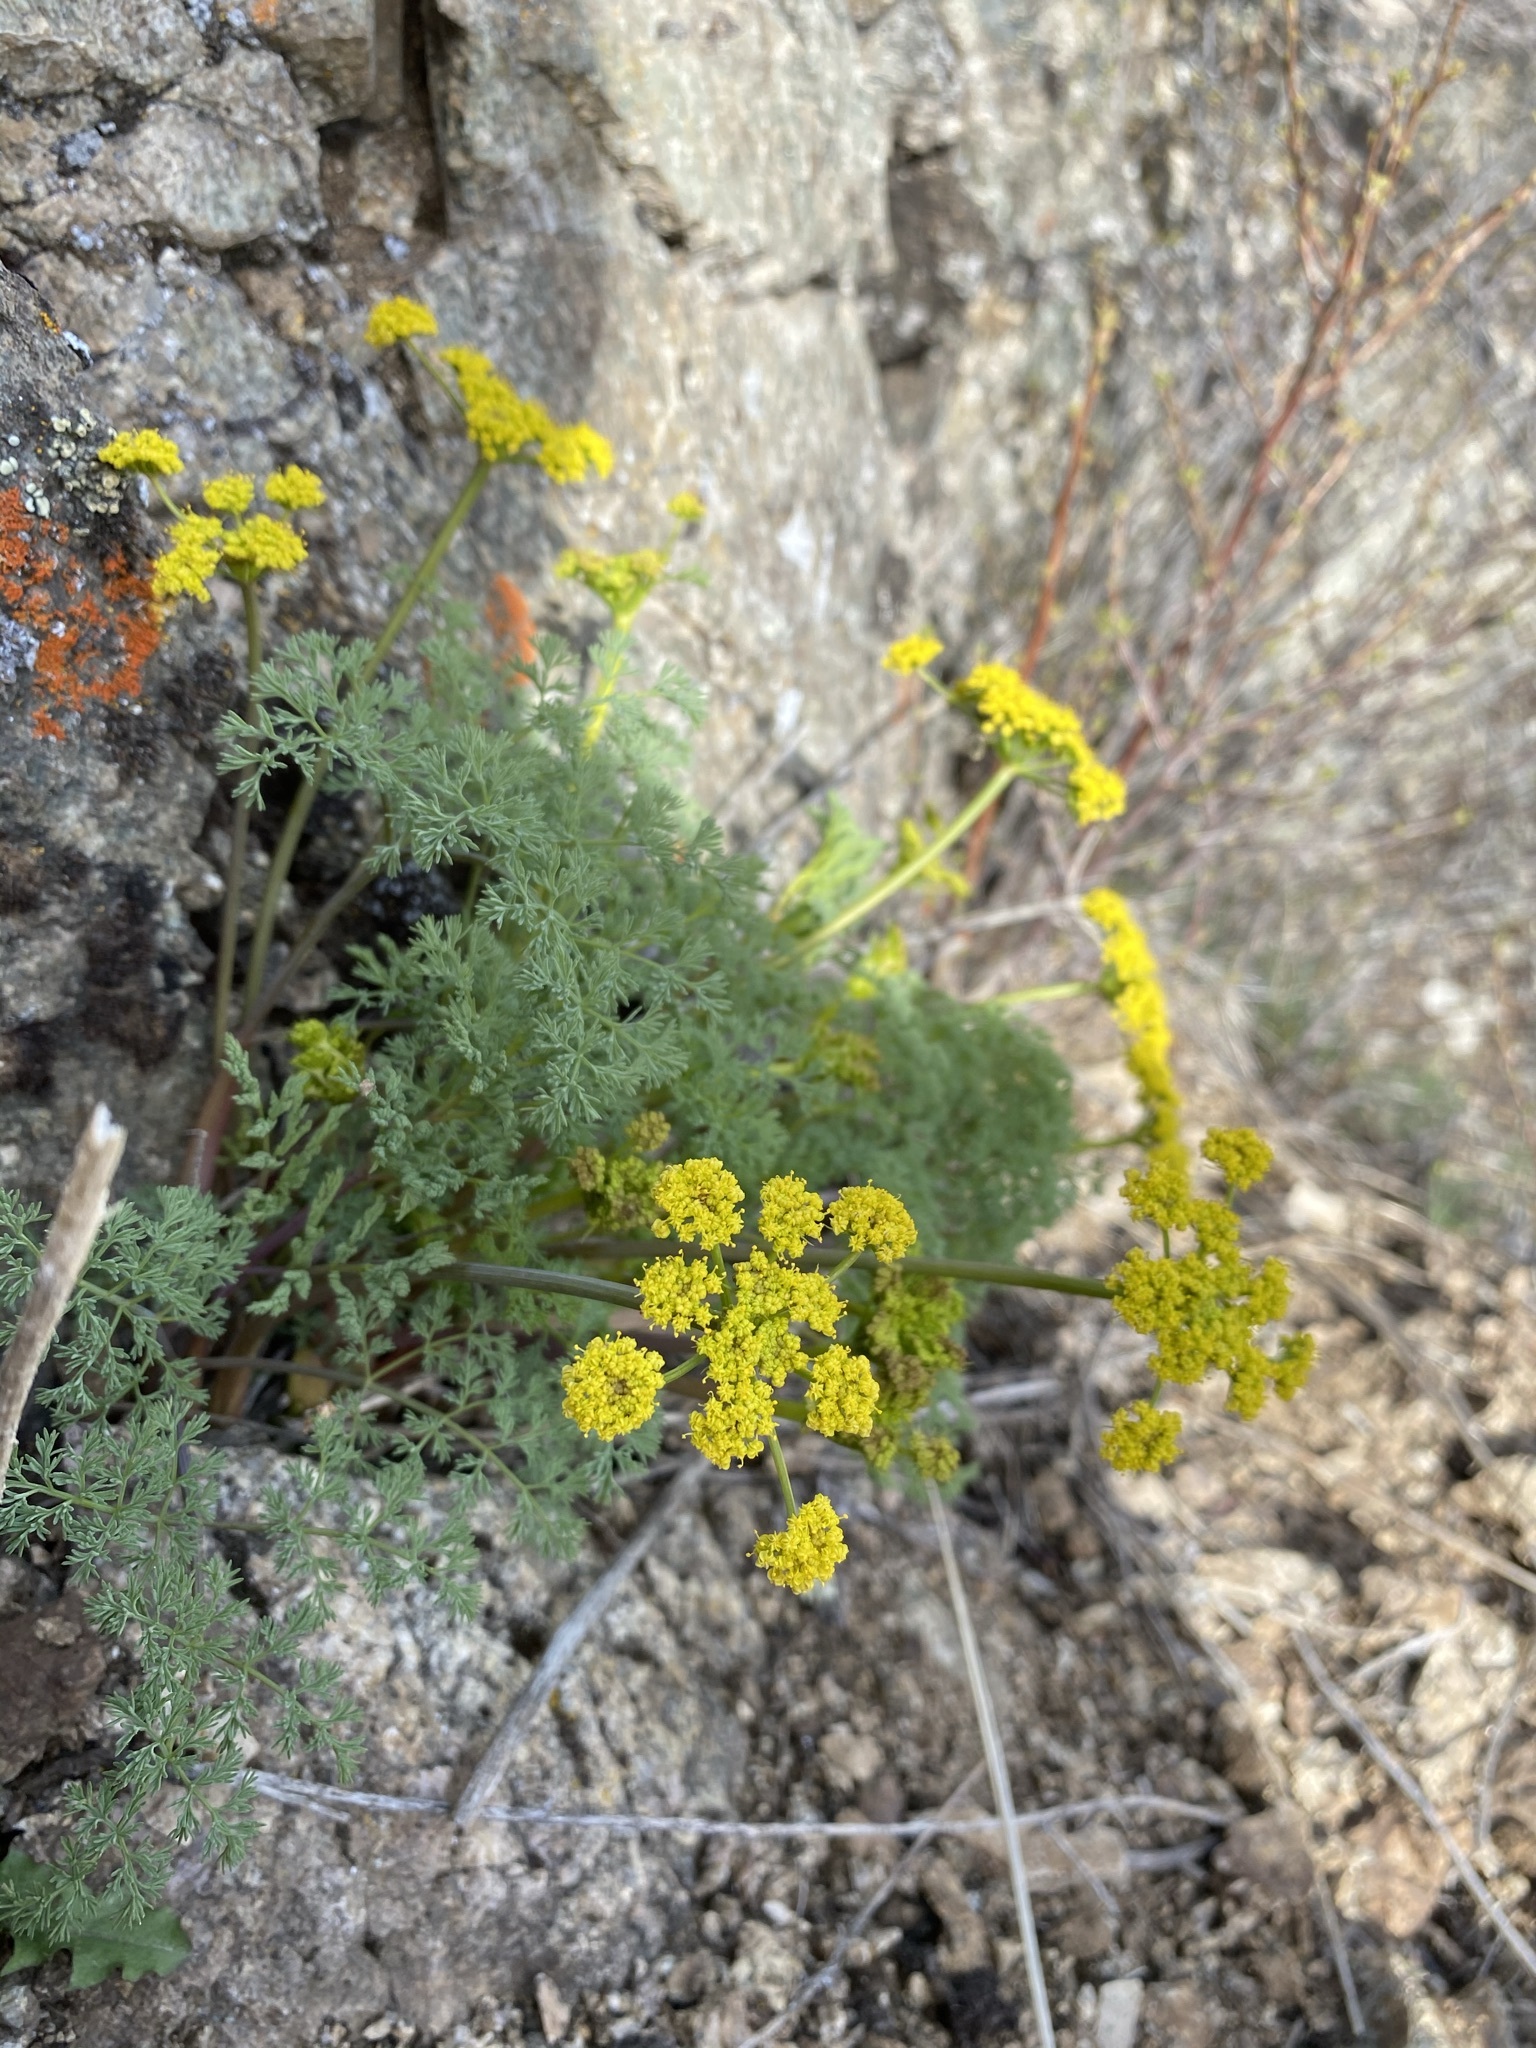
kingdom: Plantae
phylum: Tracheophyta
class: Magnoliopsida
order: Apiales
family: Apiaceae
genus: Lomatium
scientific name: Lomatium papilioniferum
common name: Butterfly lomatium
